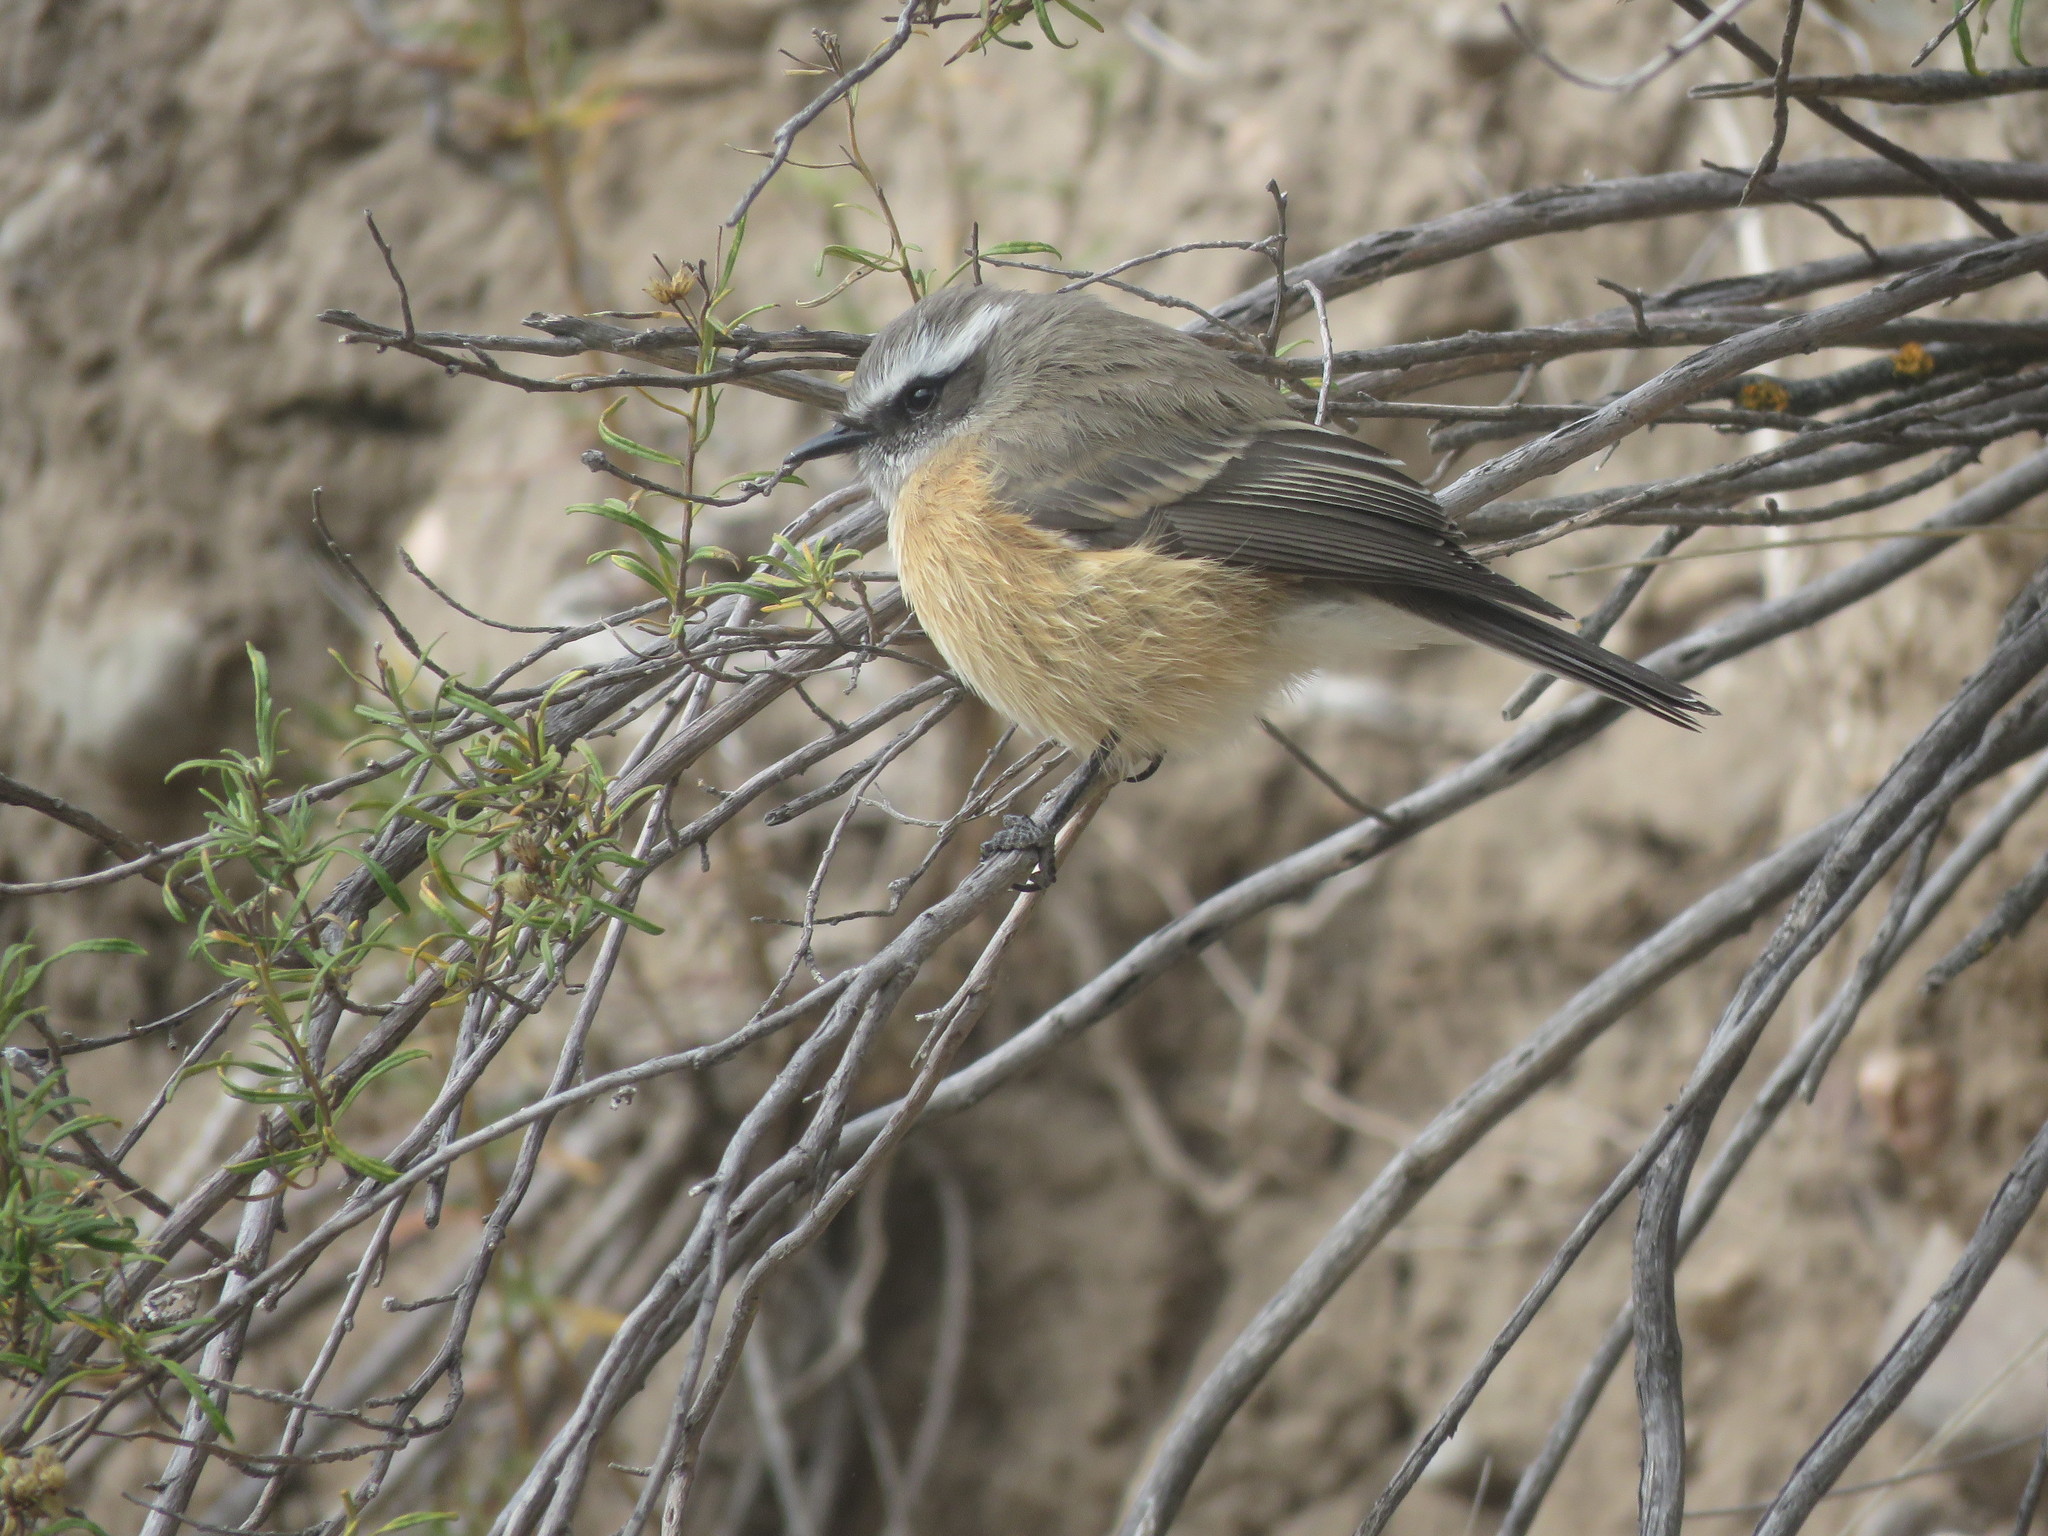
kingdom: Animalia
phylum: Chordata
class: Aves
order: Passeriformes
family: Tyrannidae
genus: Ochthoeca
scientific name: Ochthoeca oenanthoides
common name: D'orbigny's chat-tyrant
